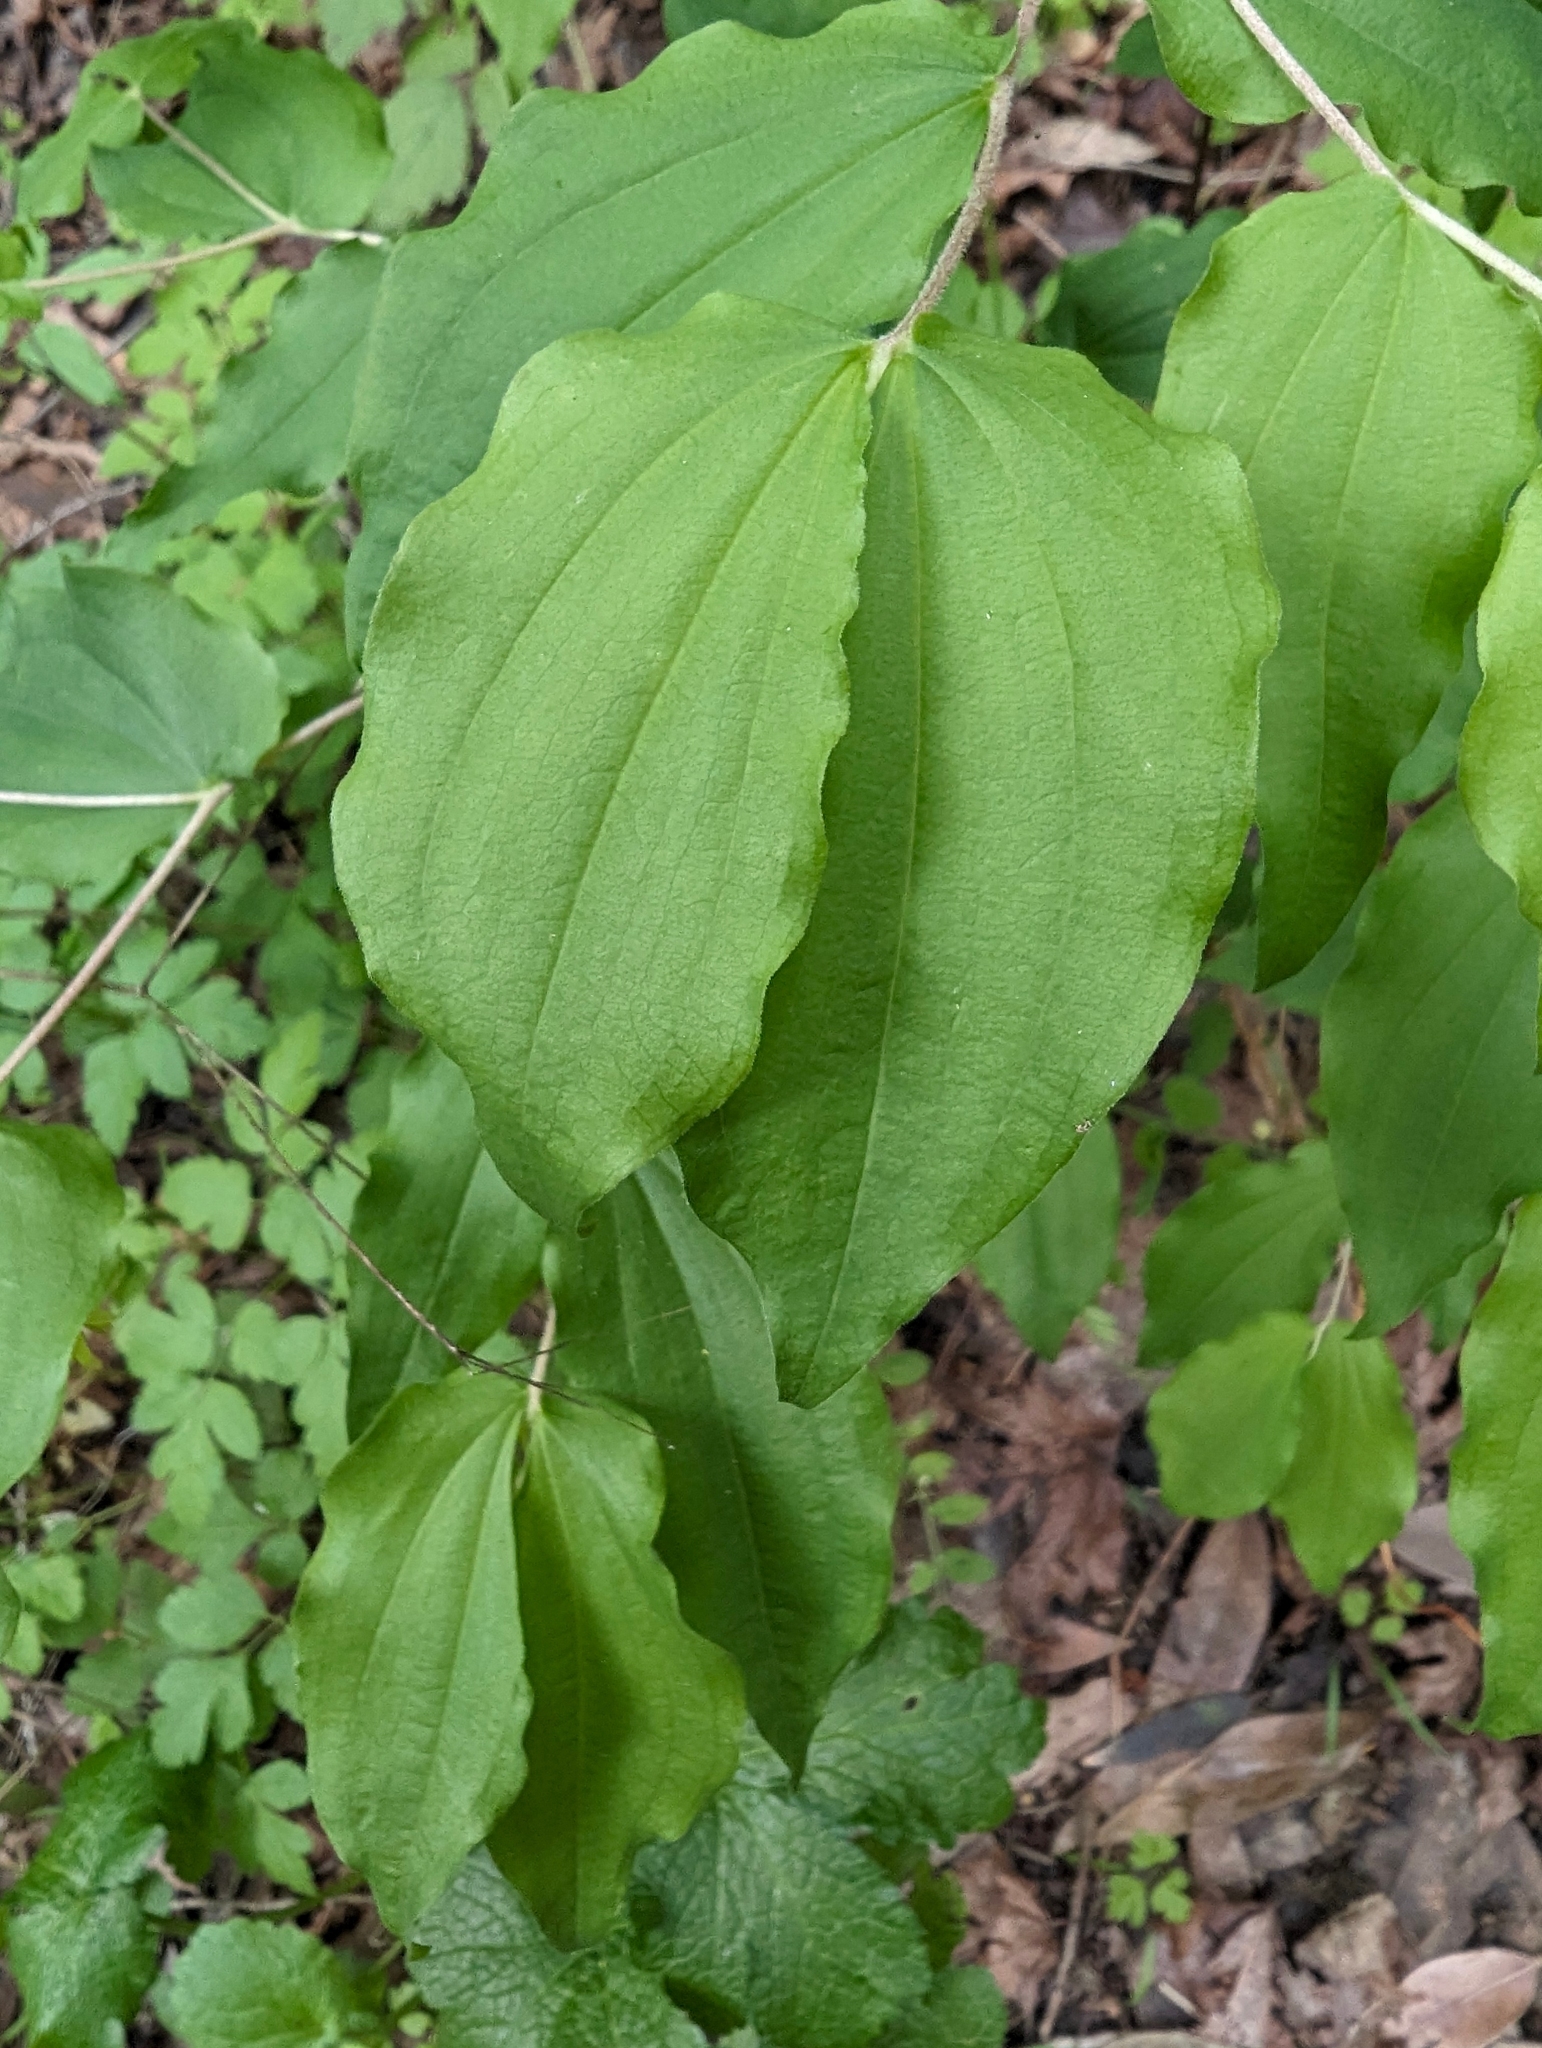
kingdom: Plantae
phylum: Tracheophyta
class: Liliopsida
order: Liliales
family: Liliaceae
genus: Prosartes
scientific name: Prosartes hookeri
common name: Fairy-bells
